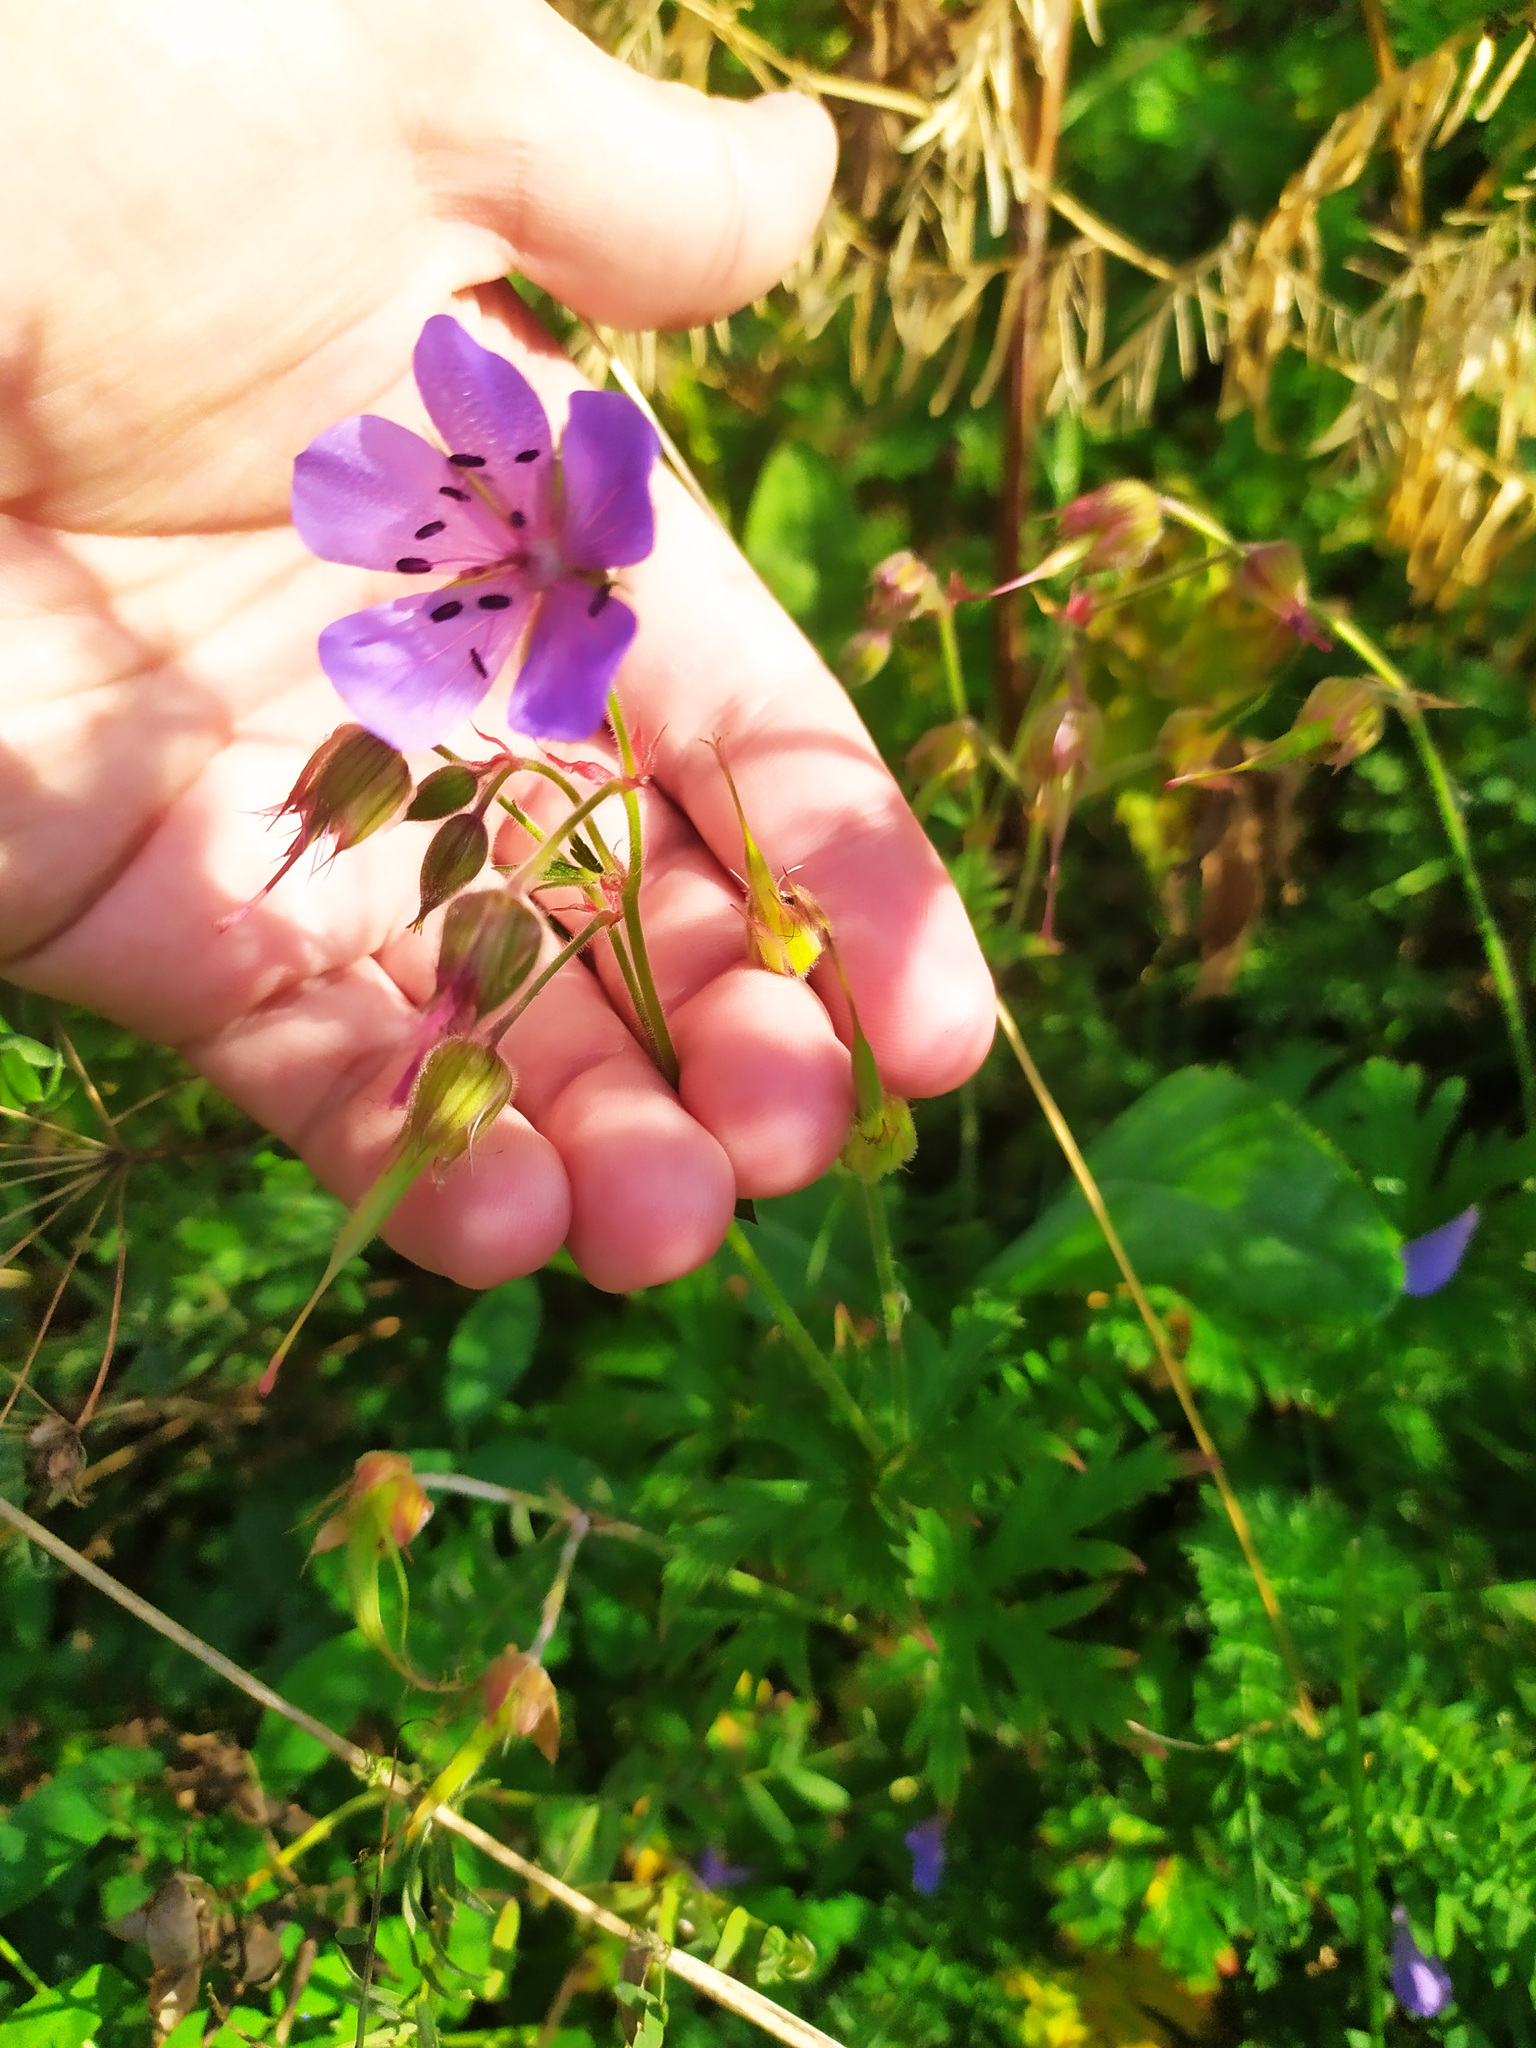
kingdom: Plantae
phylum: Tracheophyta
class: Magnoliopsida
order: Geraniales
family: Geraniaceae
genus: Geranium
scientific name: Geranium pratense
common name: Meadow crane's-bill
